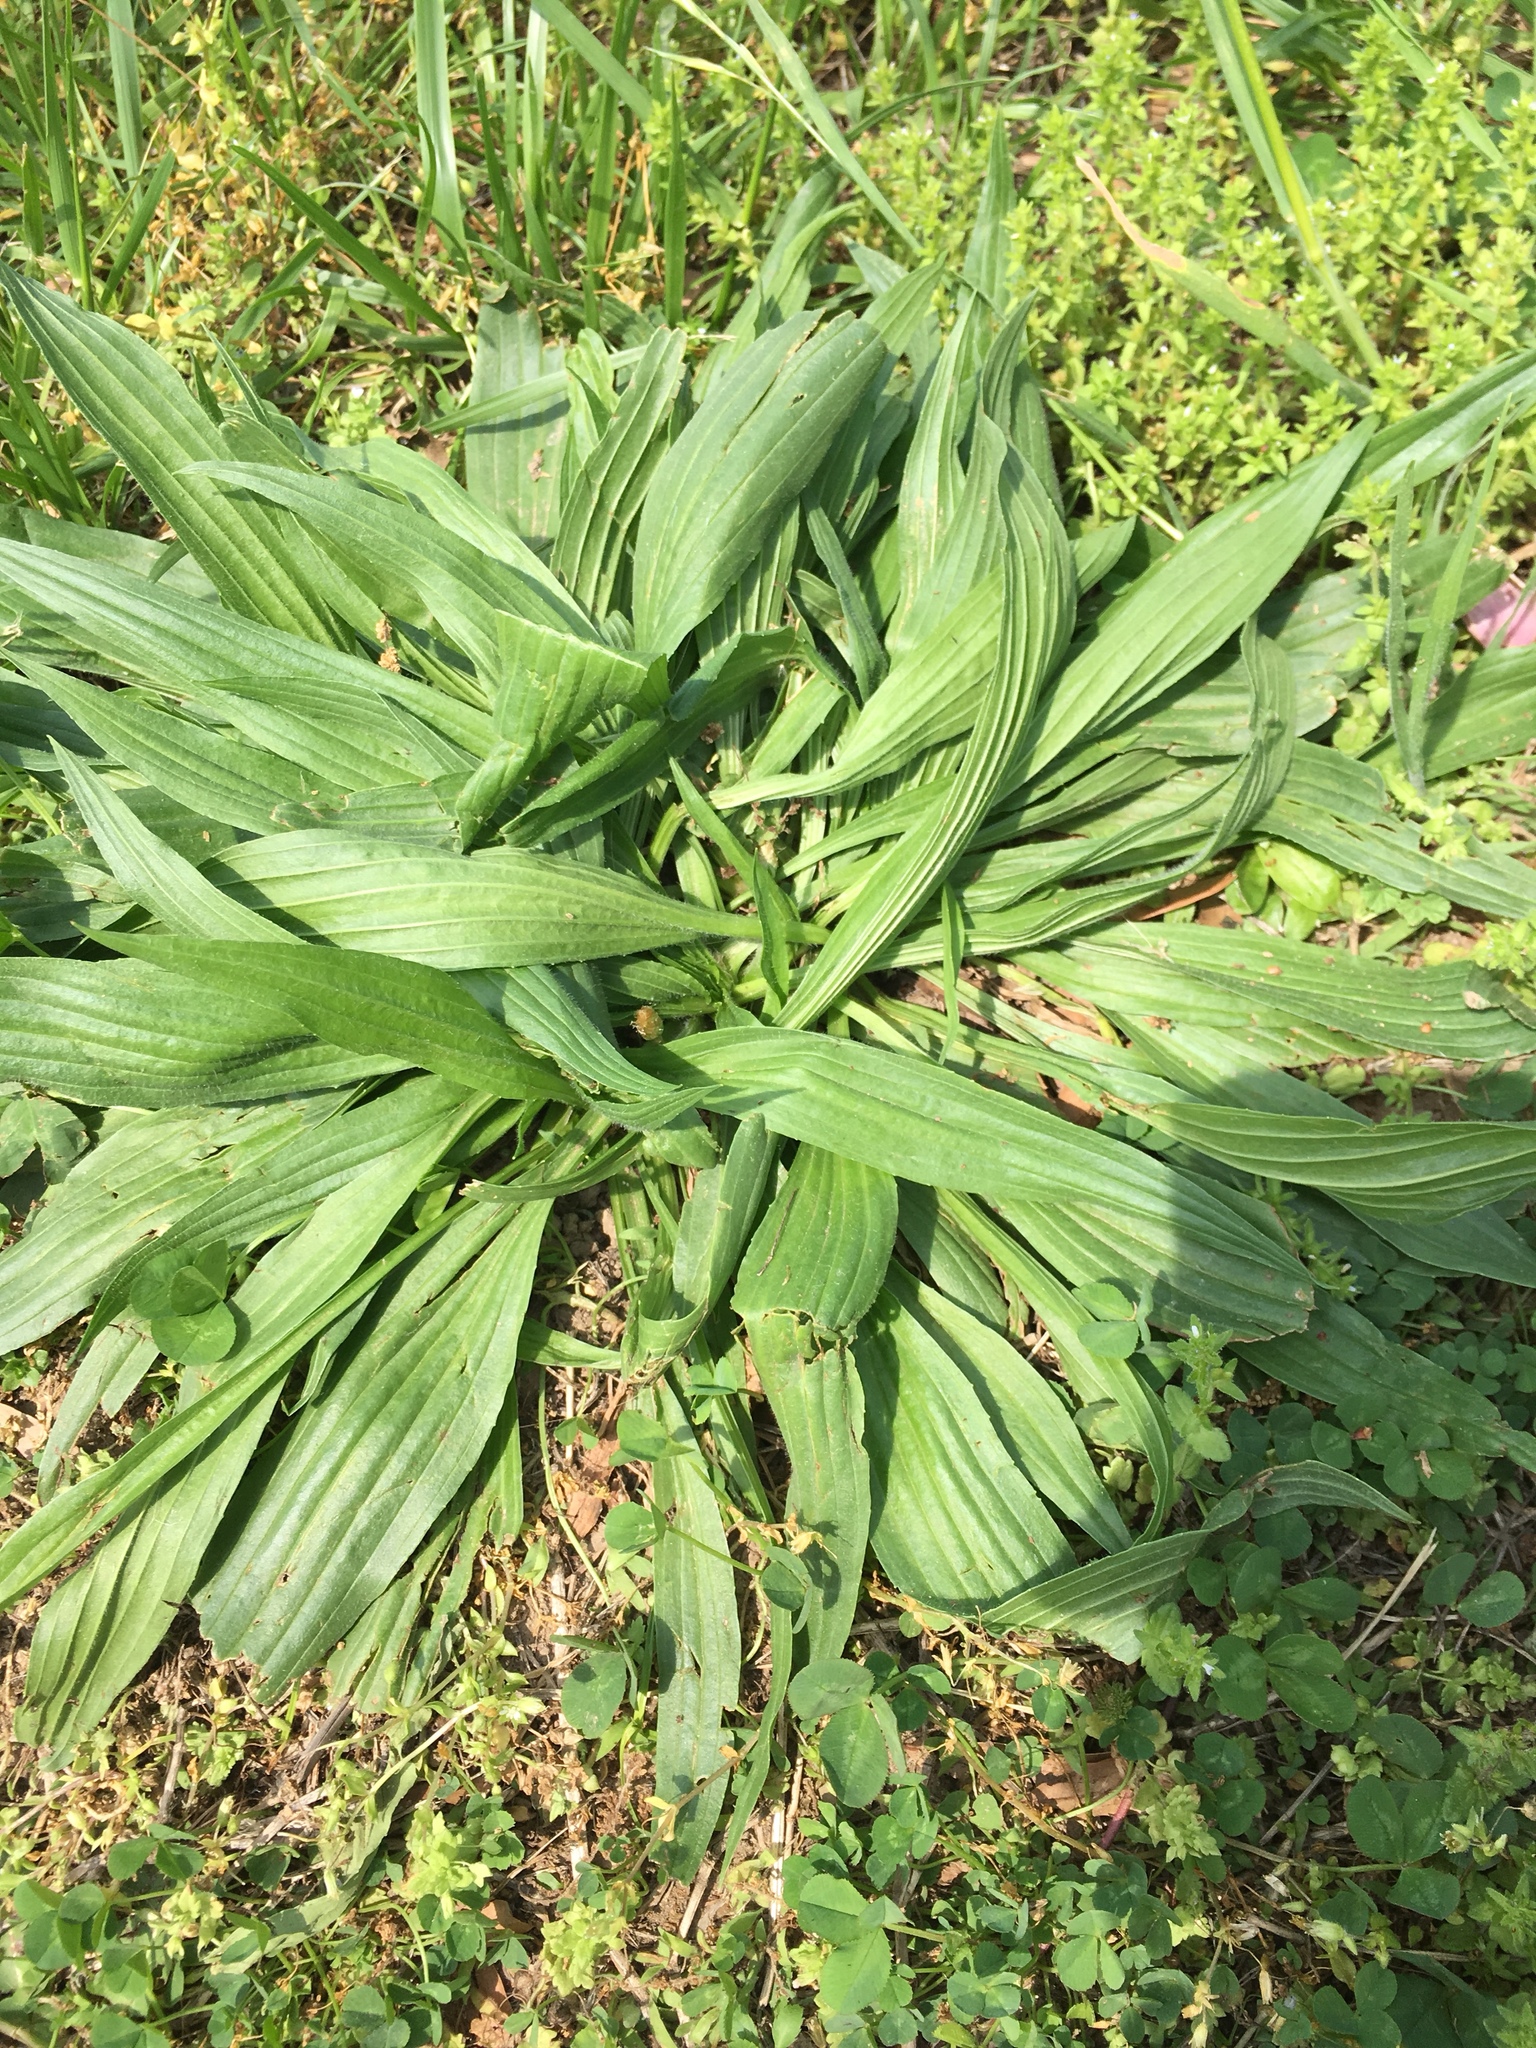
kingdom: Plantae
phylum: Tracheophyta
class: Magnoliopsida
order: Lamiales
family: Plantaginaceae
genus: Plantago
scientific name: Plantago lanceolata
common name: Ribwort plantain
